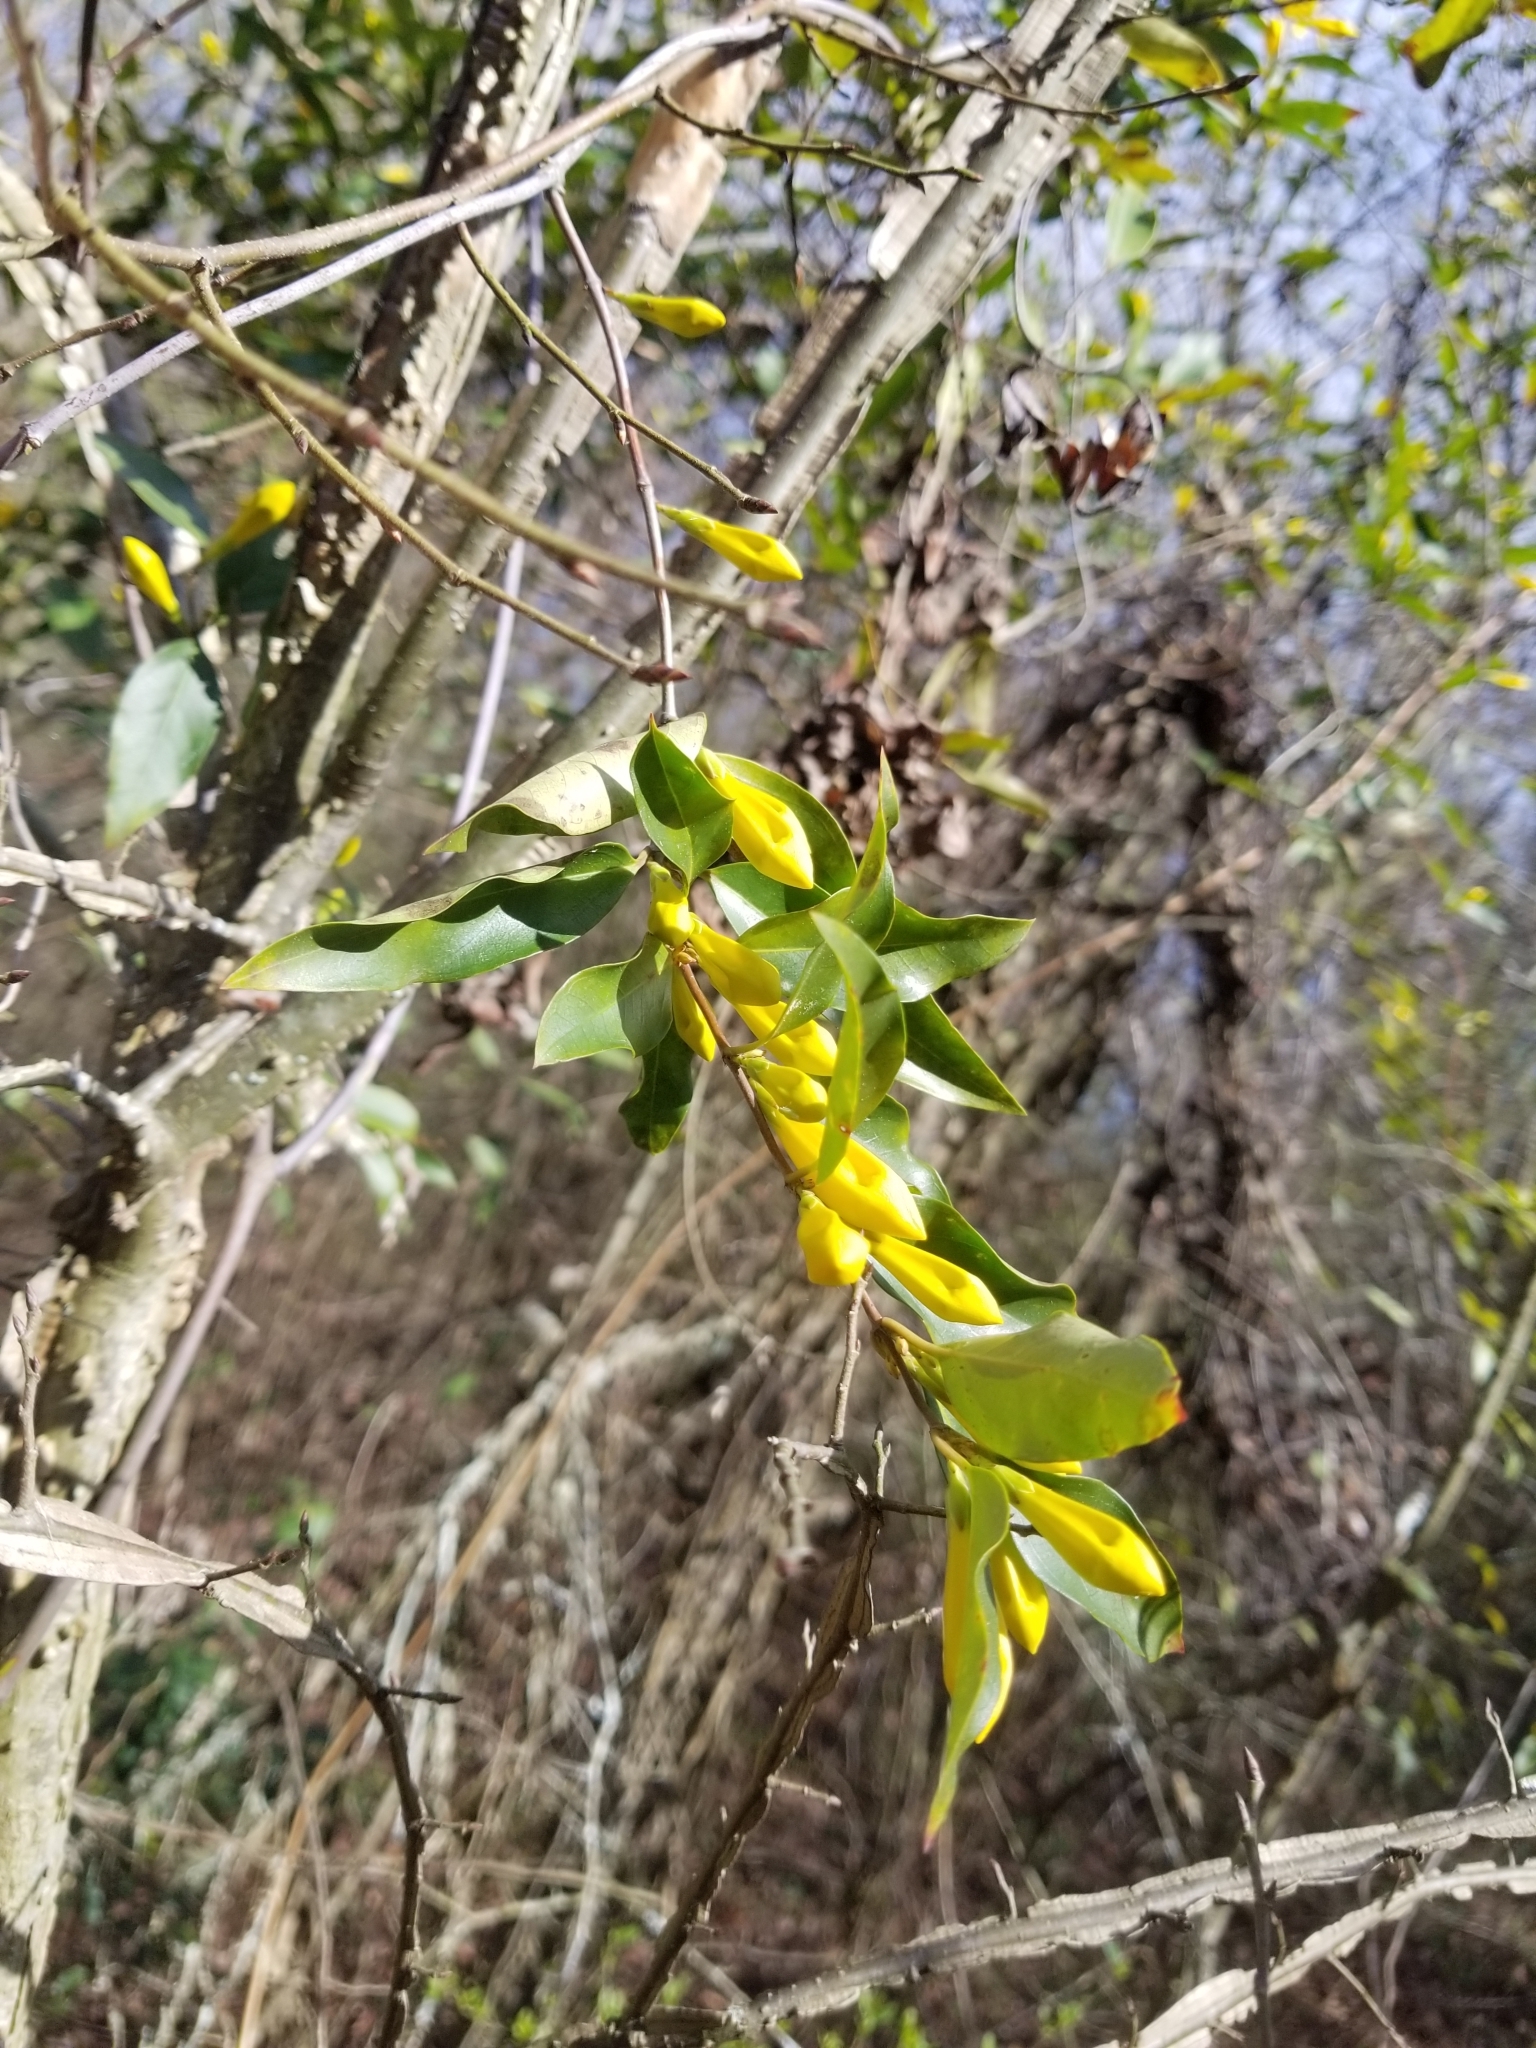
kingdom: Plantae
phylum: Tracheophyta
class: Magnoliopsida
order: Gentianales
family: Gelsemiaceae
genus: Gelsemium
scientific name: Gelsemium sempervirens
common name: Carolina-jasmine
